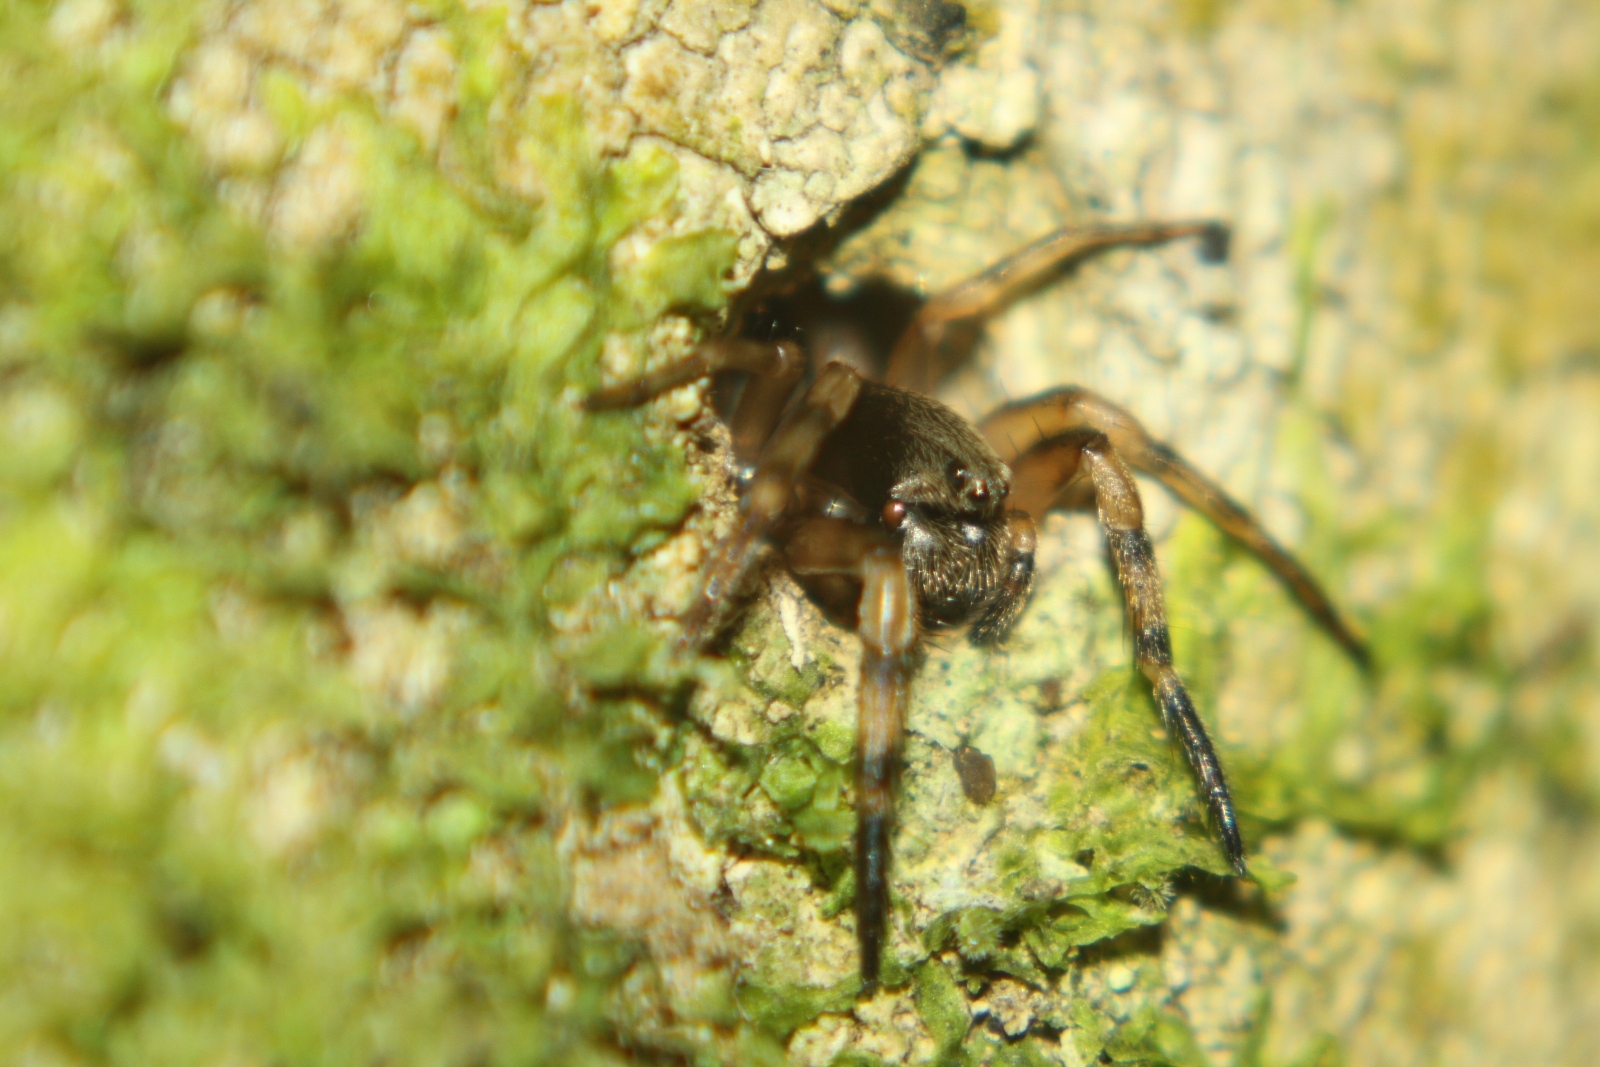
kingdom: Animalia
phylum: Arthropoda
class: Arachnida
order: Araneae
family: Cycloctenidae
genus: Plectophanes
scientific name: Plectophanes
